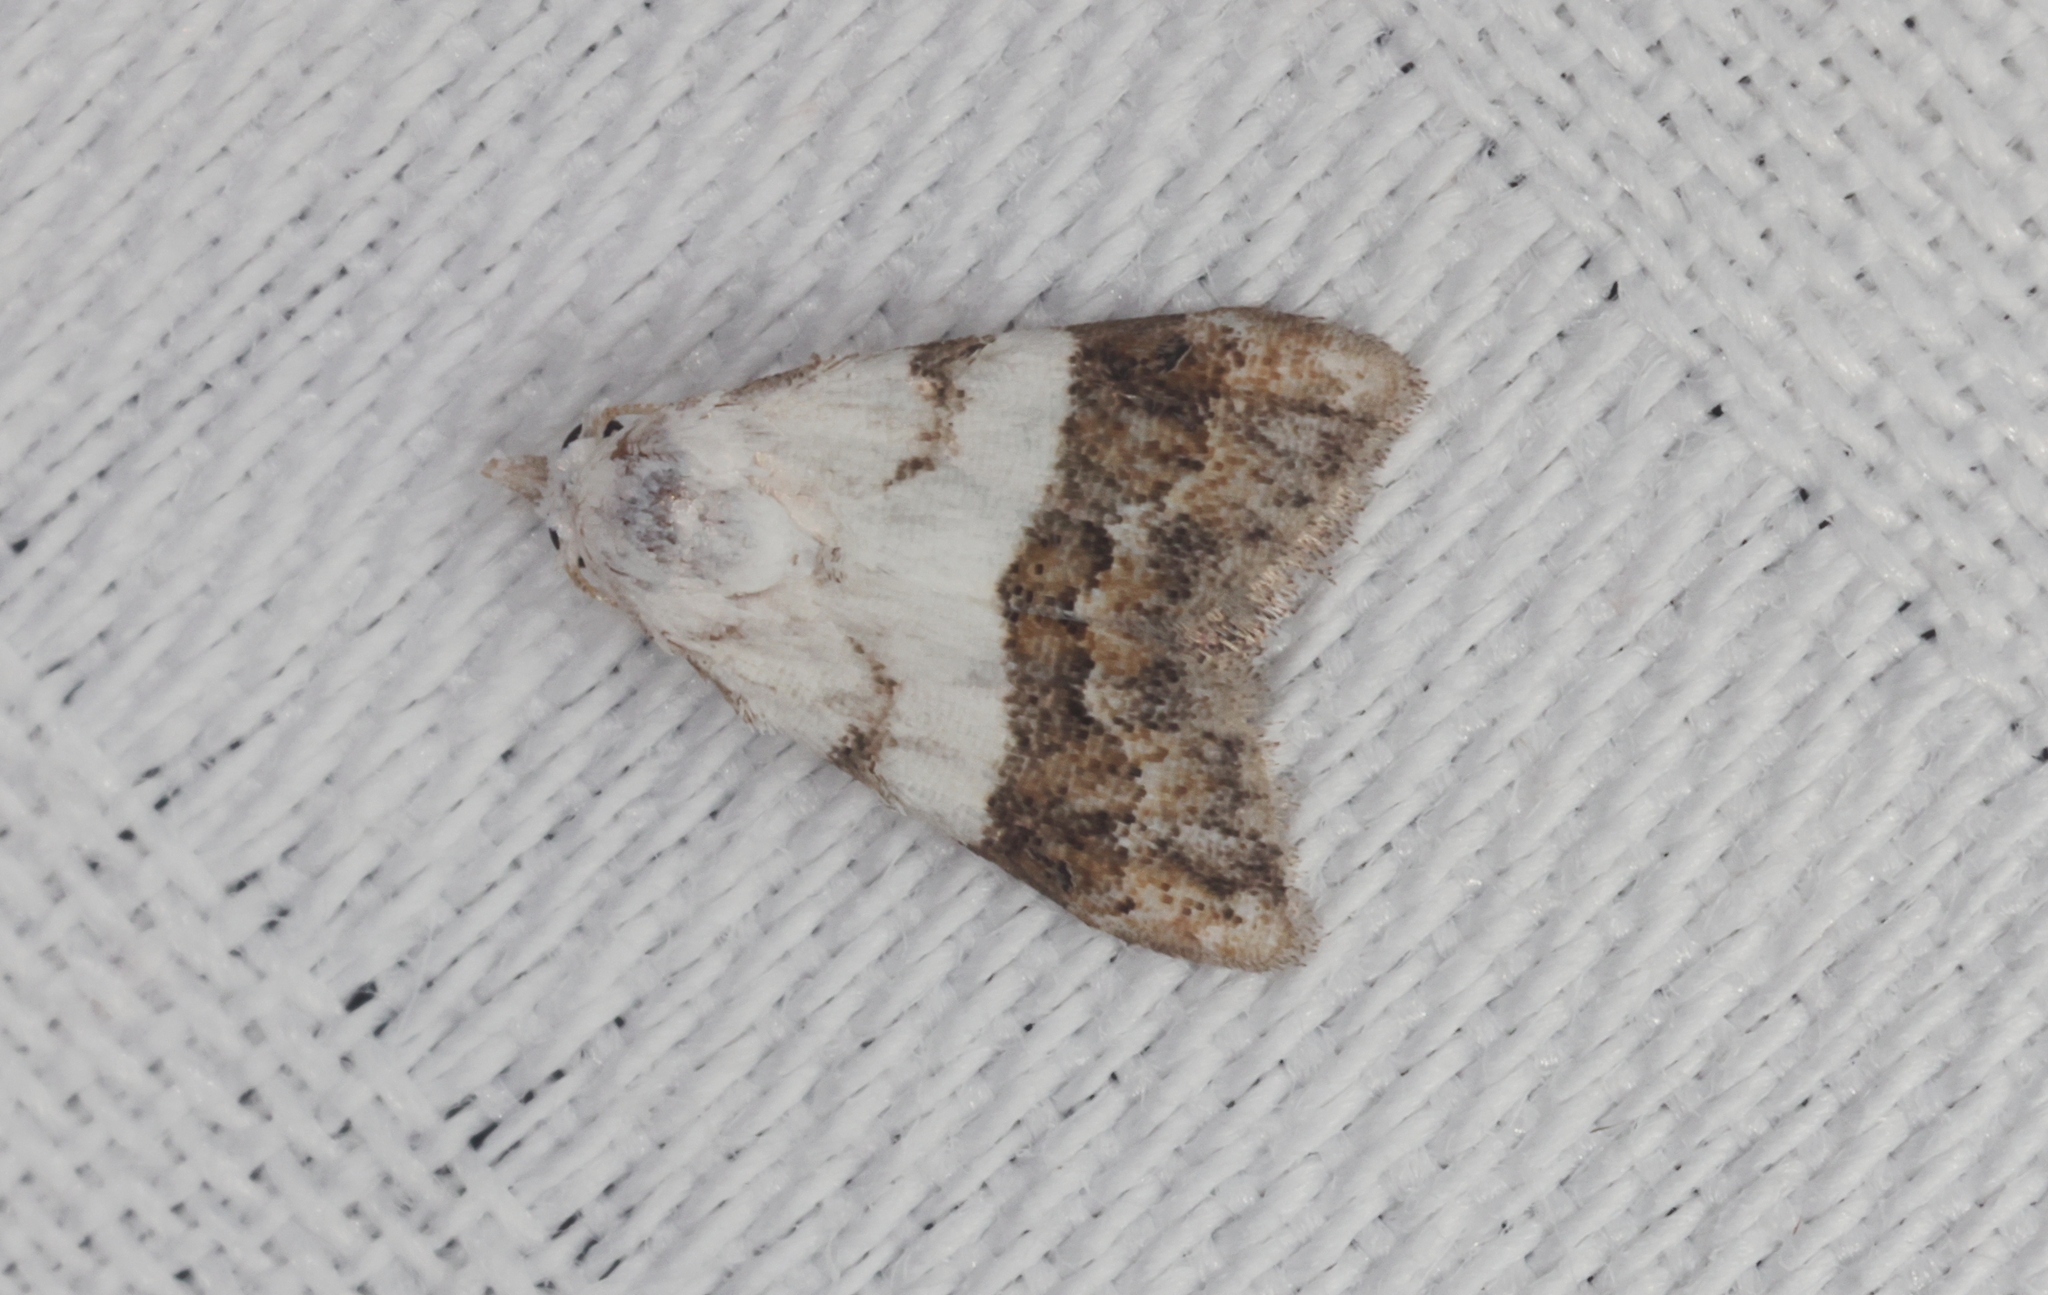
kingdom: Animalia
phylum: Arthropoda
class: Insecta
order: Lepidoptera
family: Nolidae
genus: Nola
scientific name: Nola lucidalis
